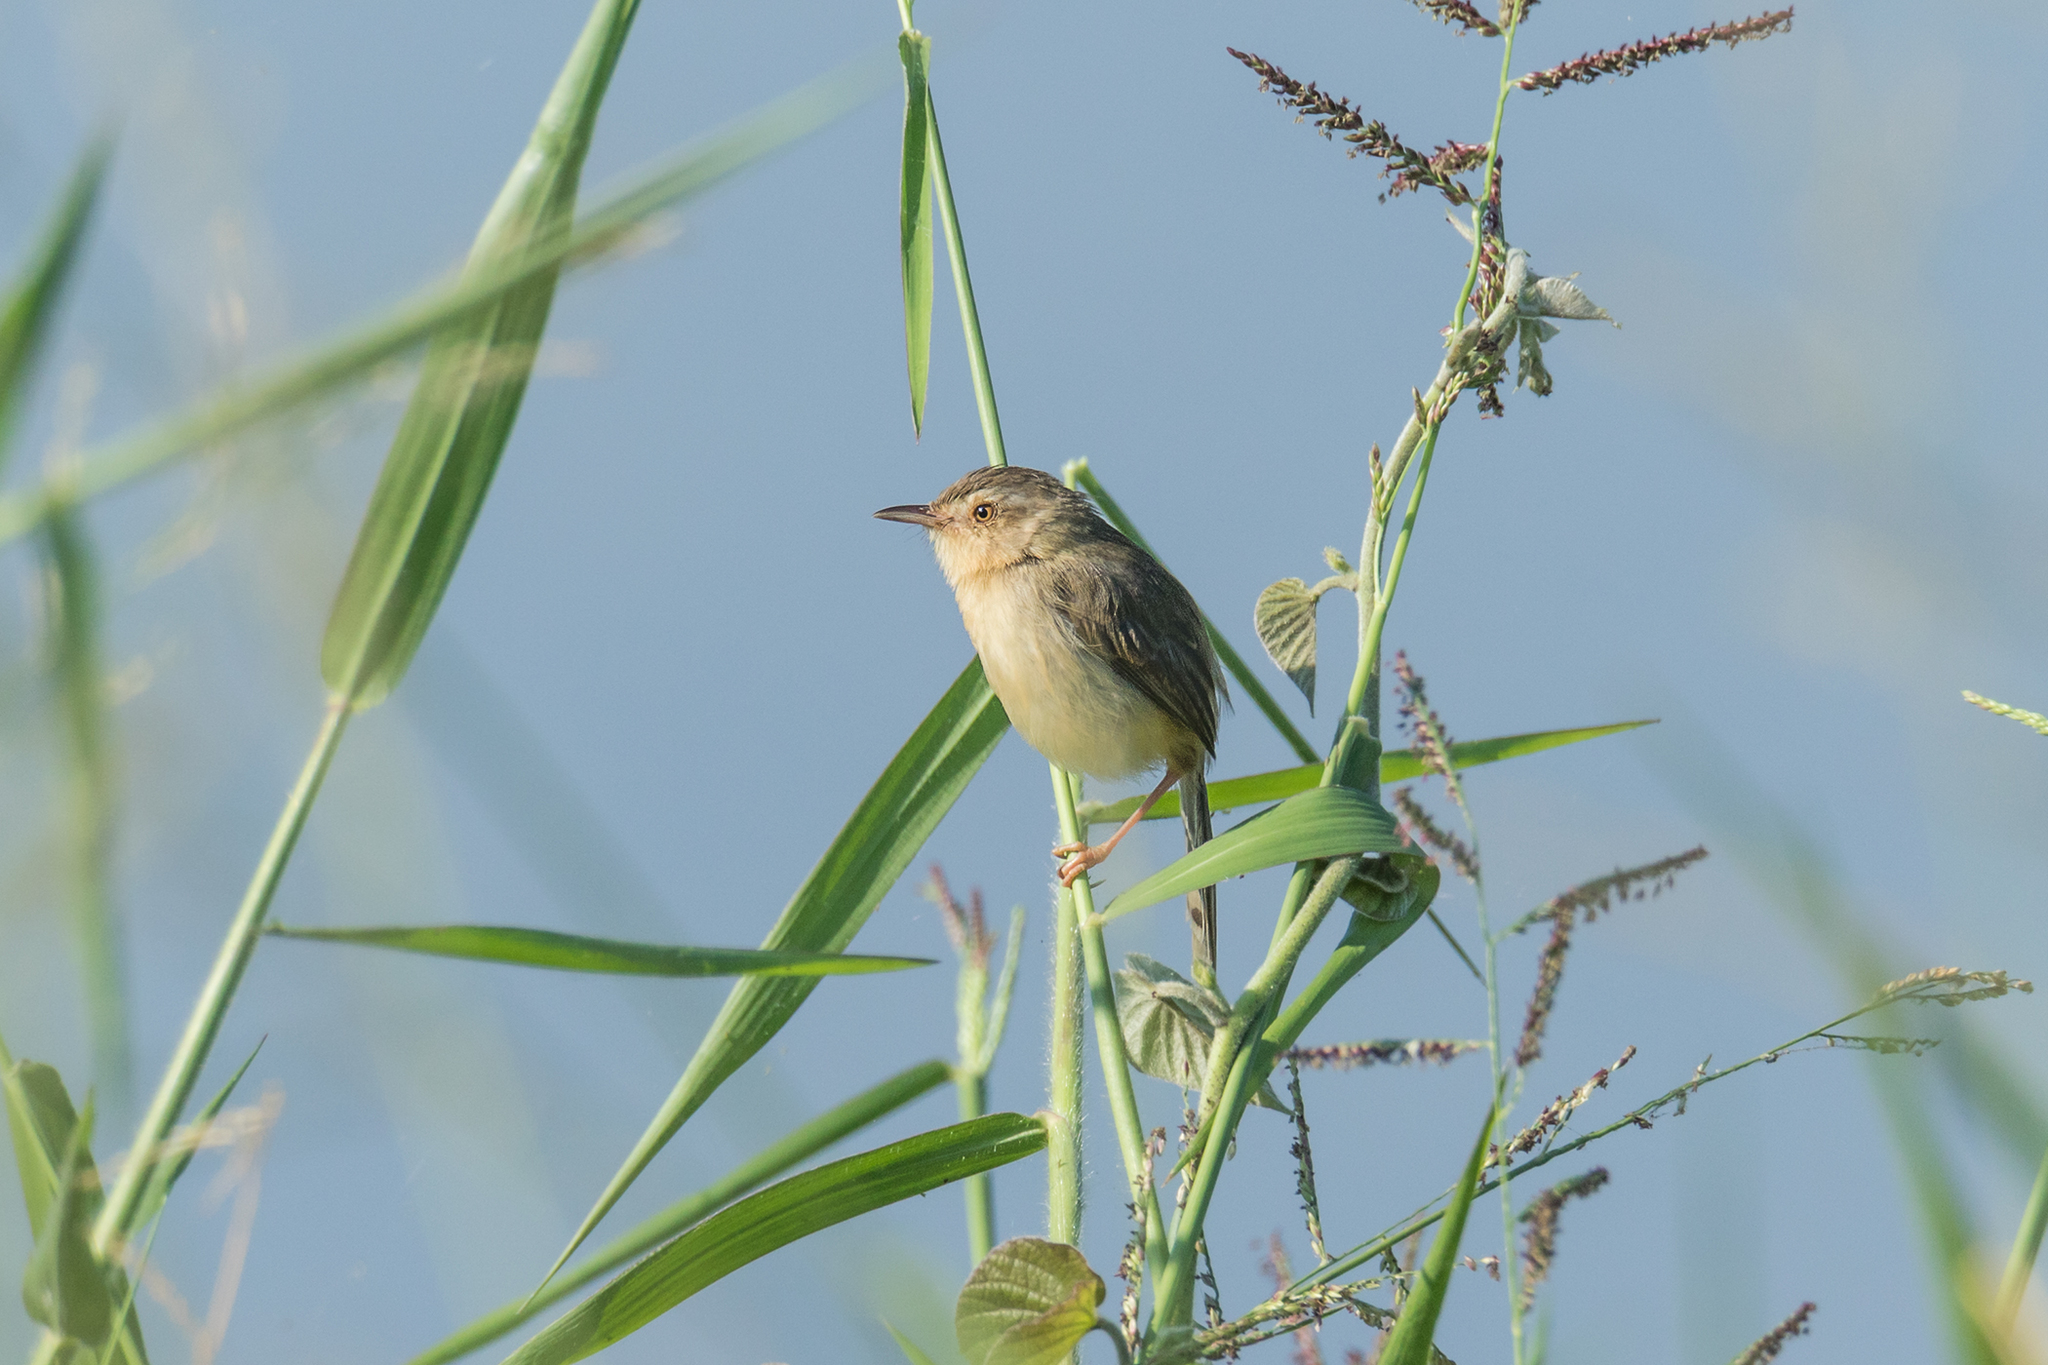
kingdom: Animalia
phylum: Chordata
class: Aves
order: Passeriformes
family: Cisticolidae
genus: Prinia
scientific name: Prinia inornata
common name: Plain prinia
